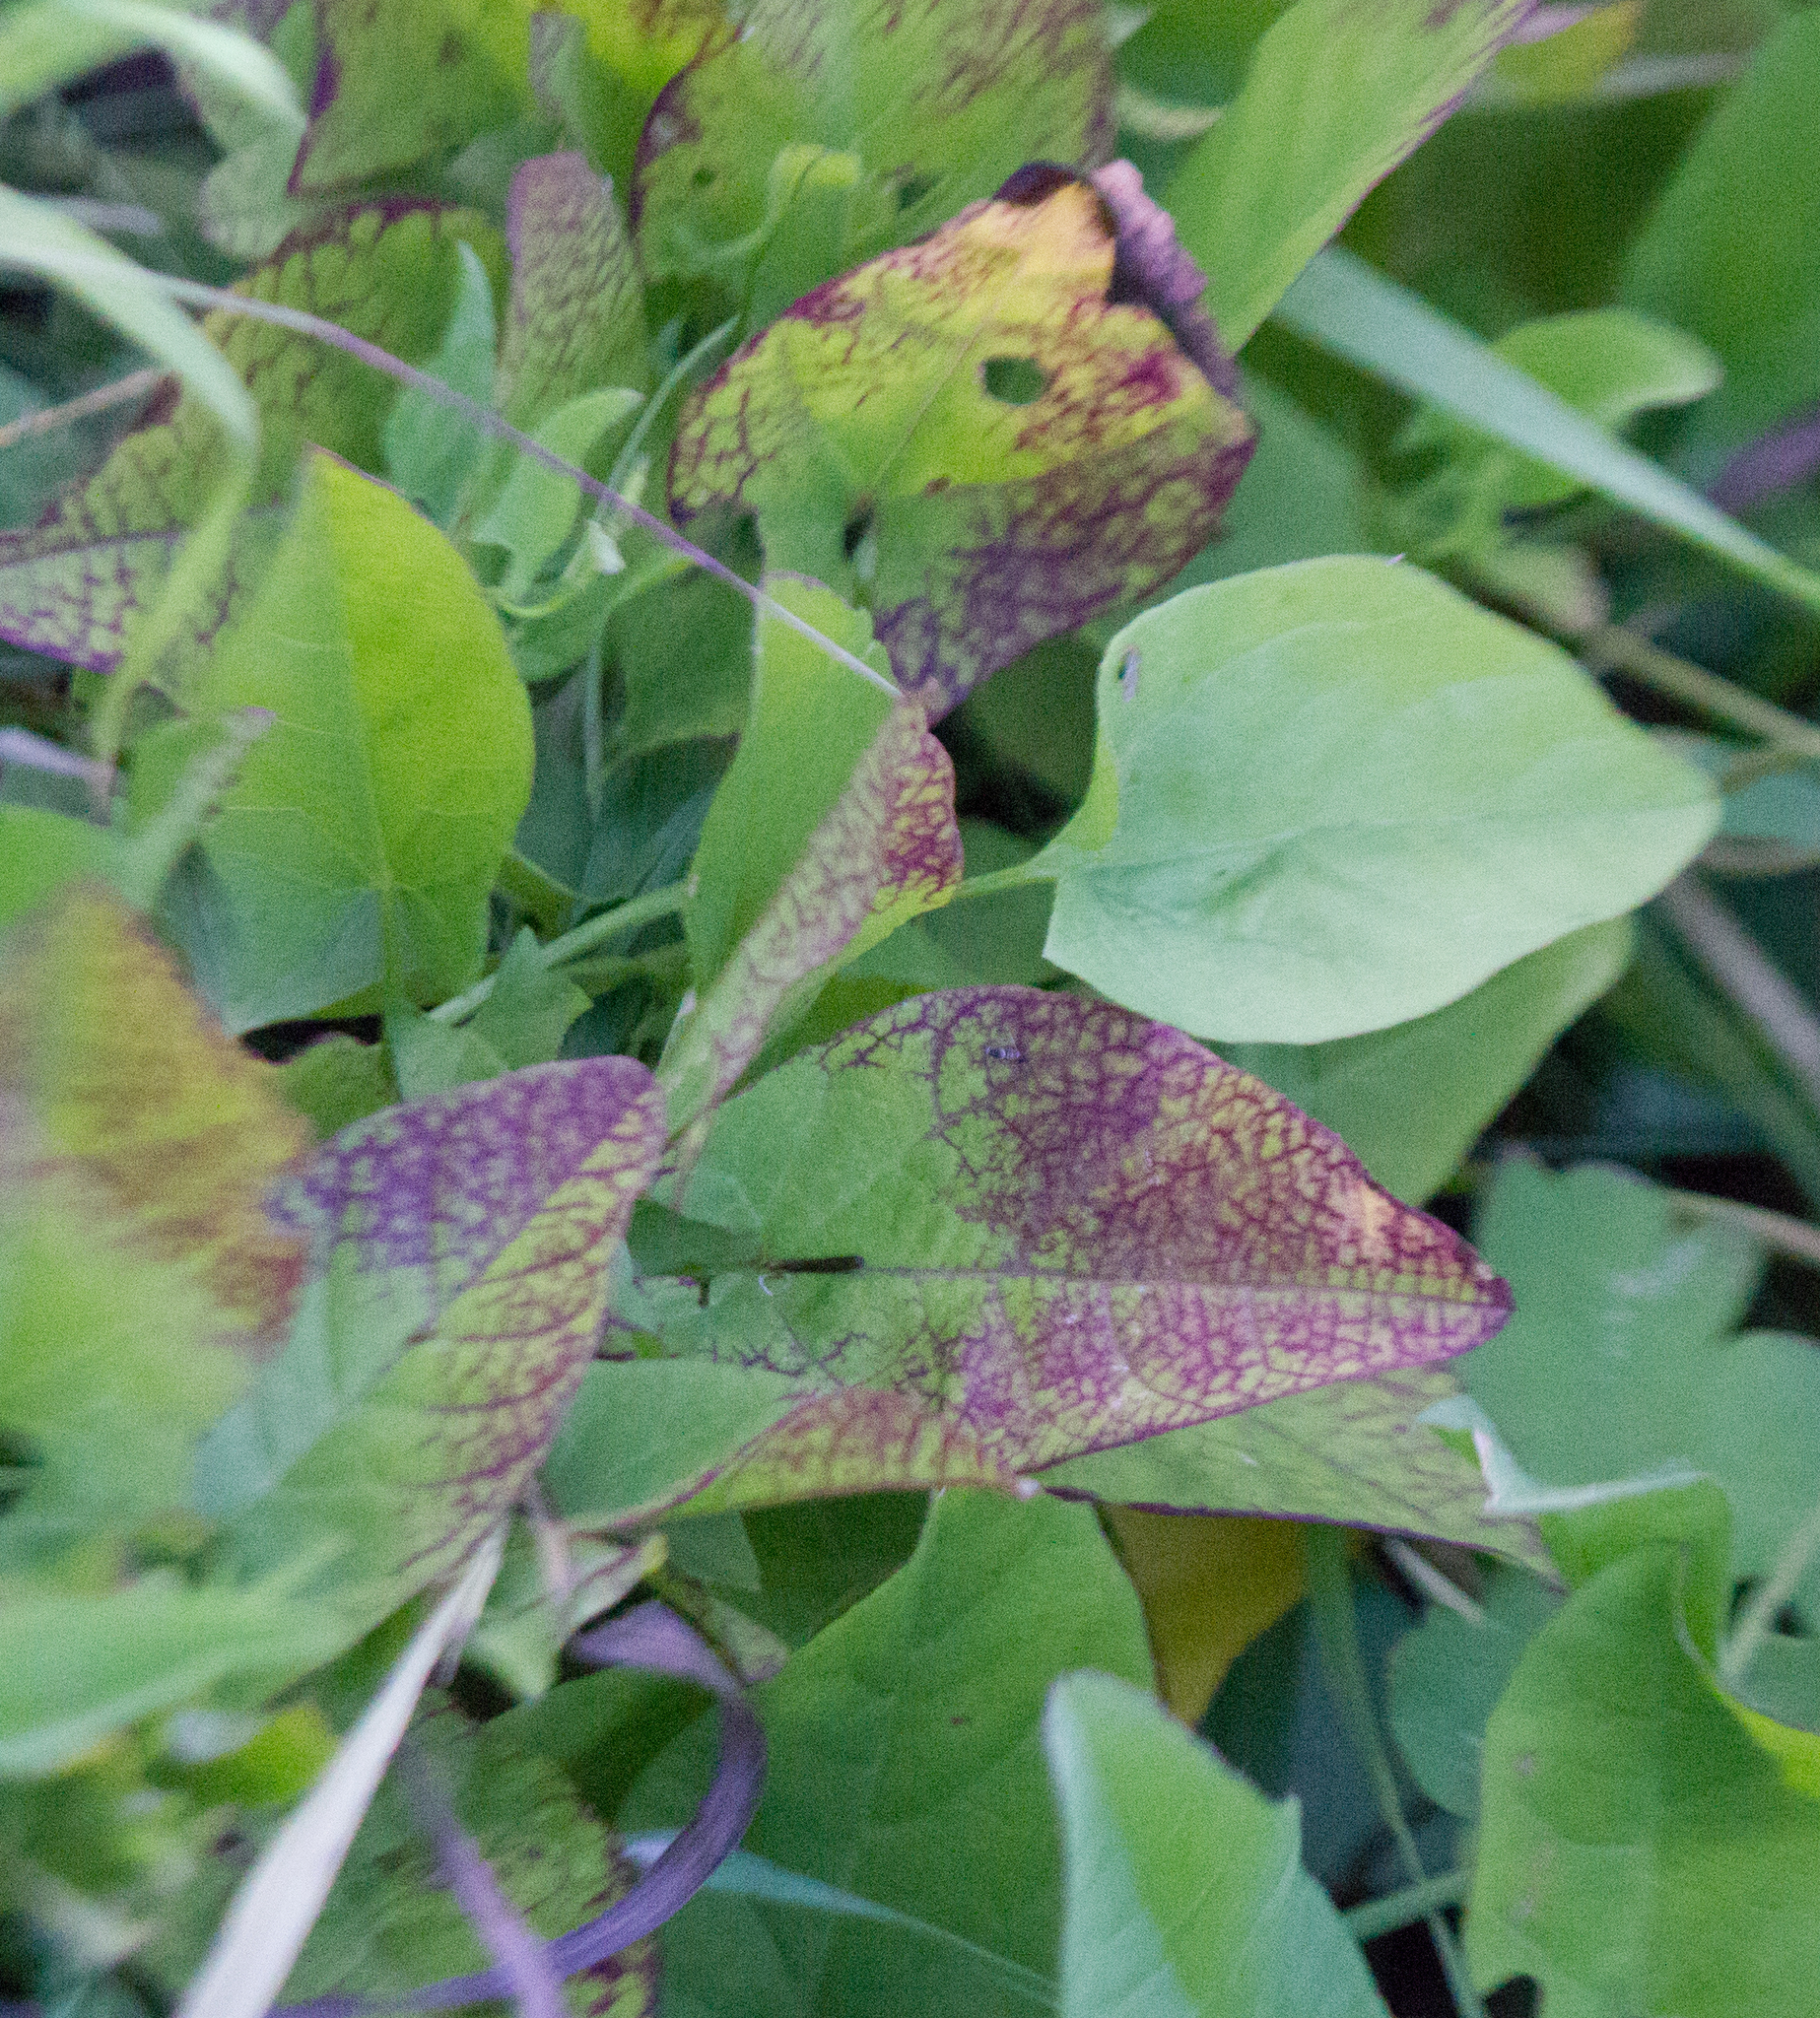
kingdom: Plantae
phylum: Tracheophyta
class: Magnoliopsida
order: Solanales
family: Convolvulaceae
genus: Convolvulus
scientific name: Convolvulus arvensis
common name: Field bindweed
